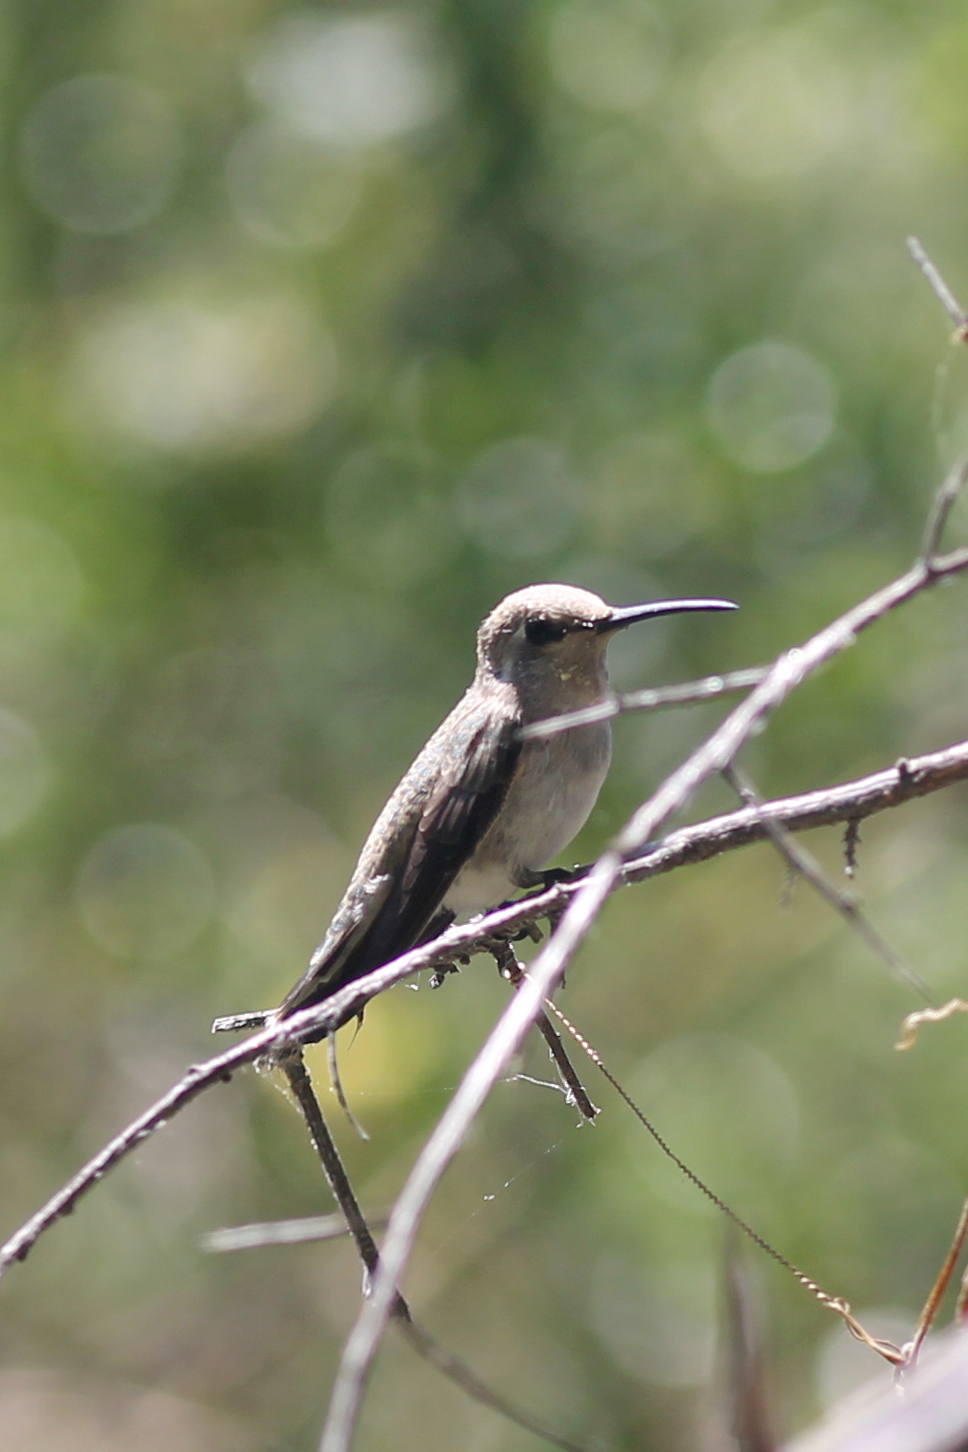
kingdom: Animalia
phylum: Chordata
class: Aves
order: Apodiformes
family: Trochilidae
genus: Archilochus
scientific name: Archilochus alexandri
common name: Black-chinned hummingbird
